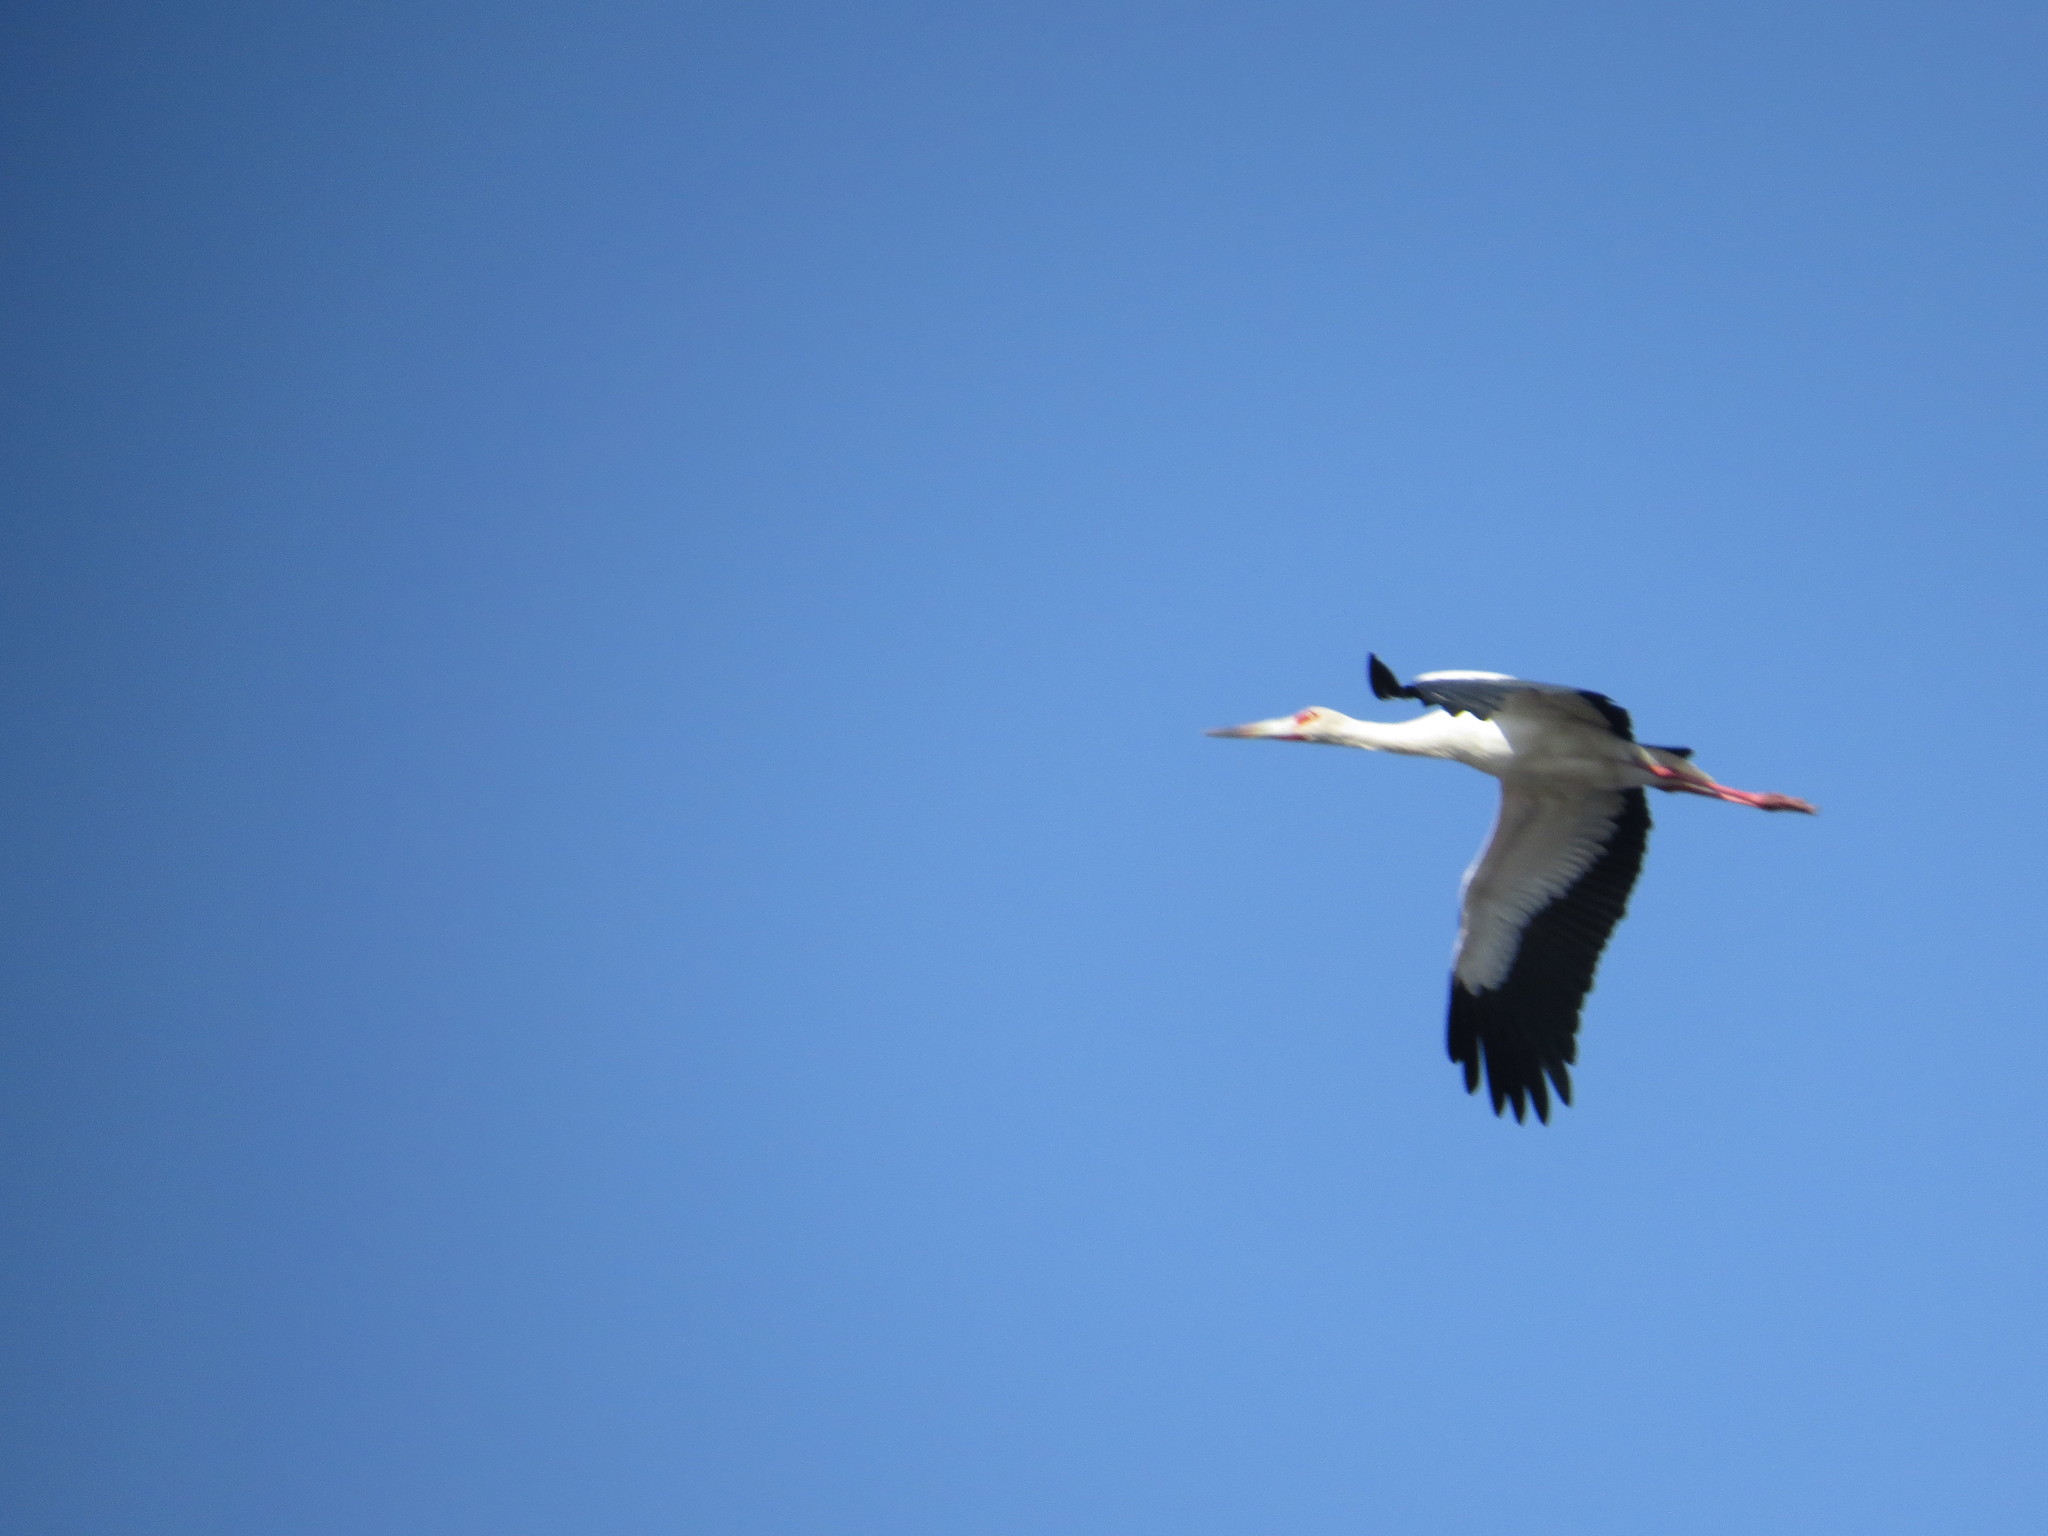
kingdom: Animalia
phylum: Chordata
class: Aves
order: Ciconiiformes
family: Ciconiidae
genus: Ciconia
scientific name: Ciconia maguari
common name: Maguari stork
